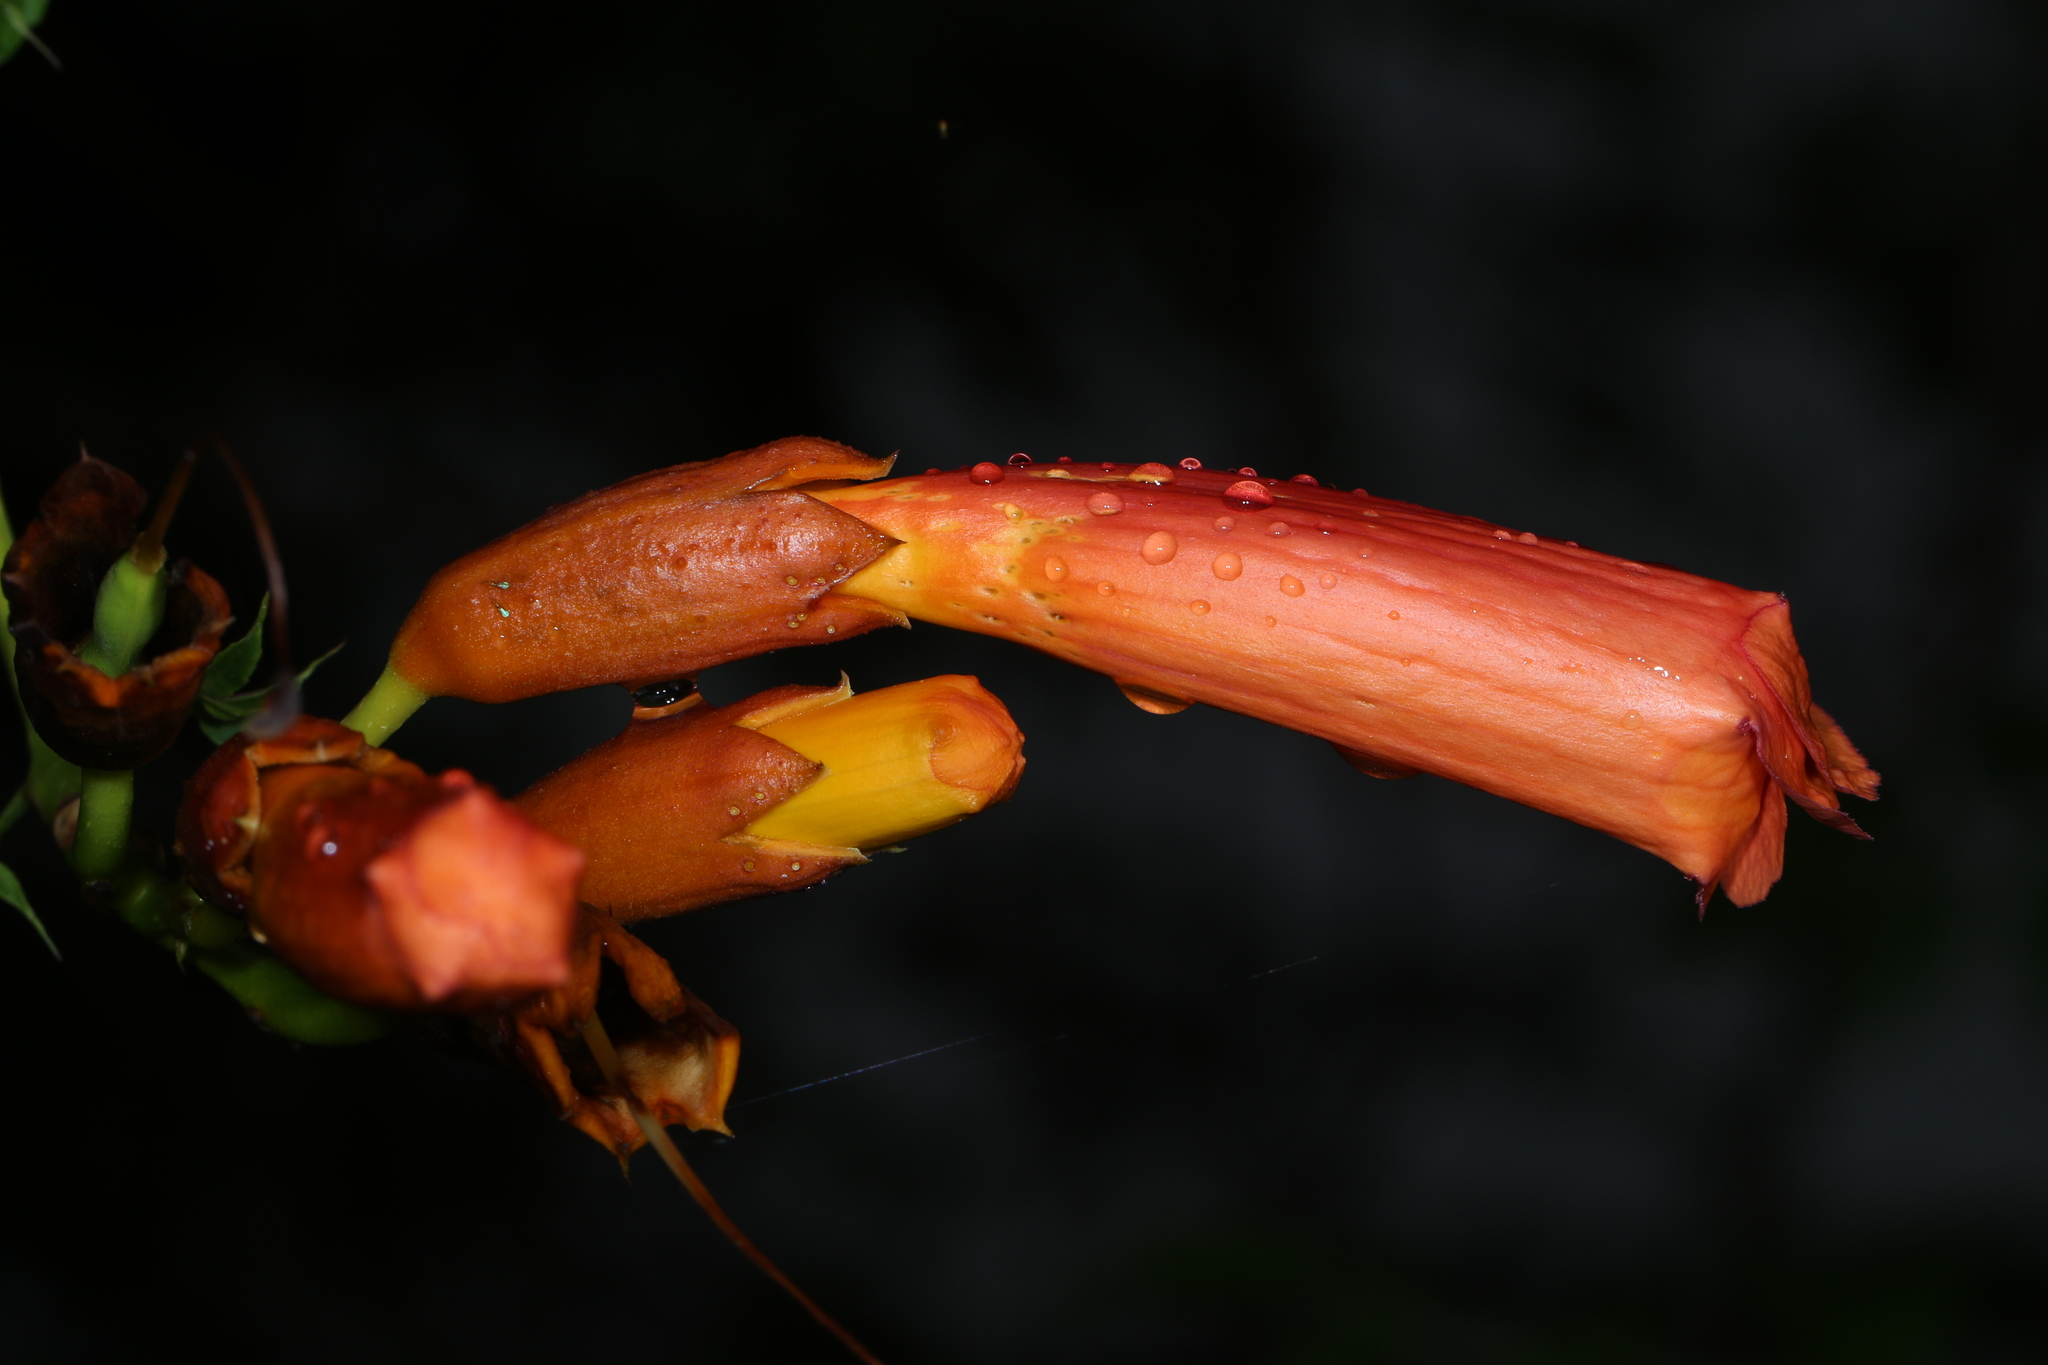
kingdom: Plantae
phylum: Tracheophyta
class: Magnoliopsida
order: Lamiales
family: Bignoniaceae
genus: Campsis
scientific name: Campsis radicans
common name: Trumpet-creeper
